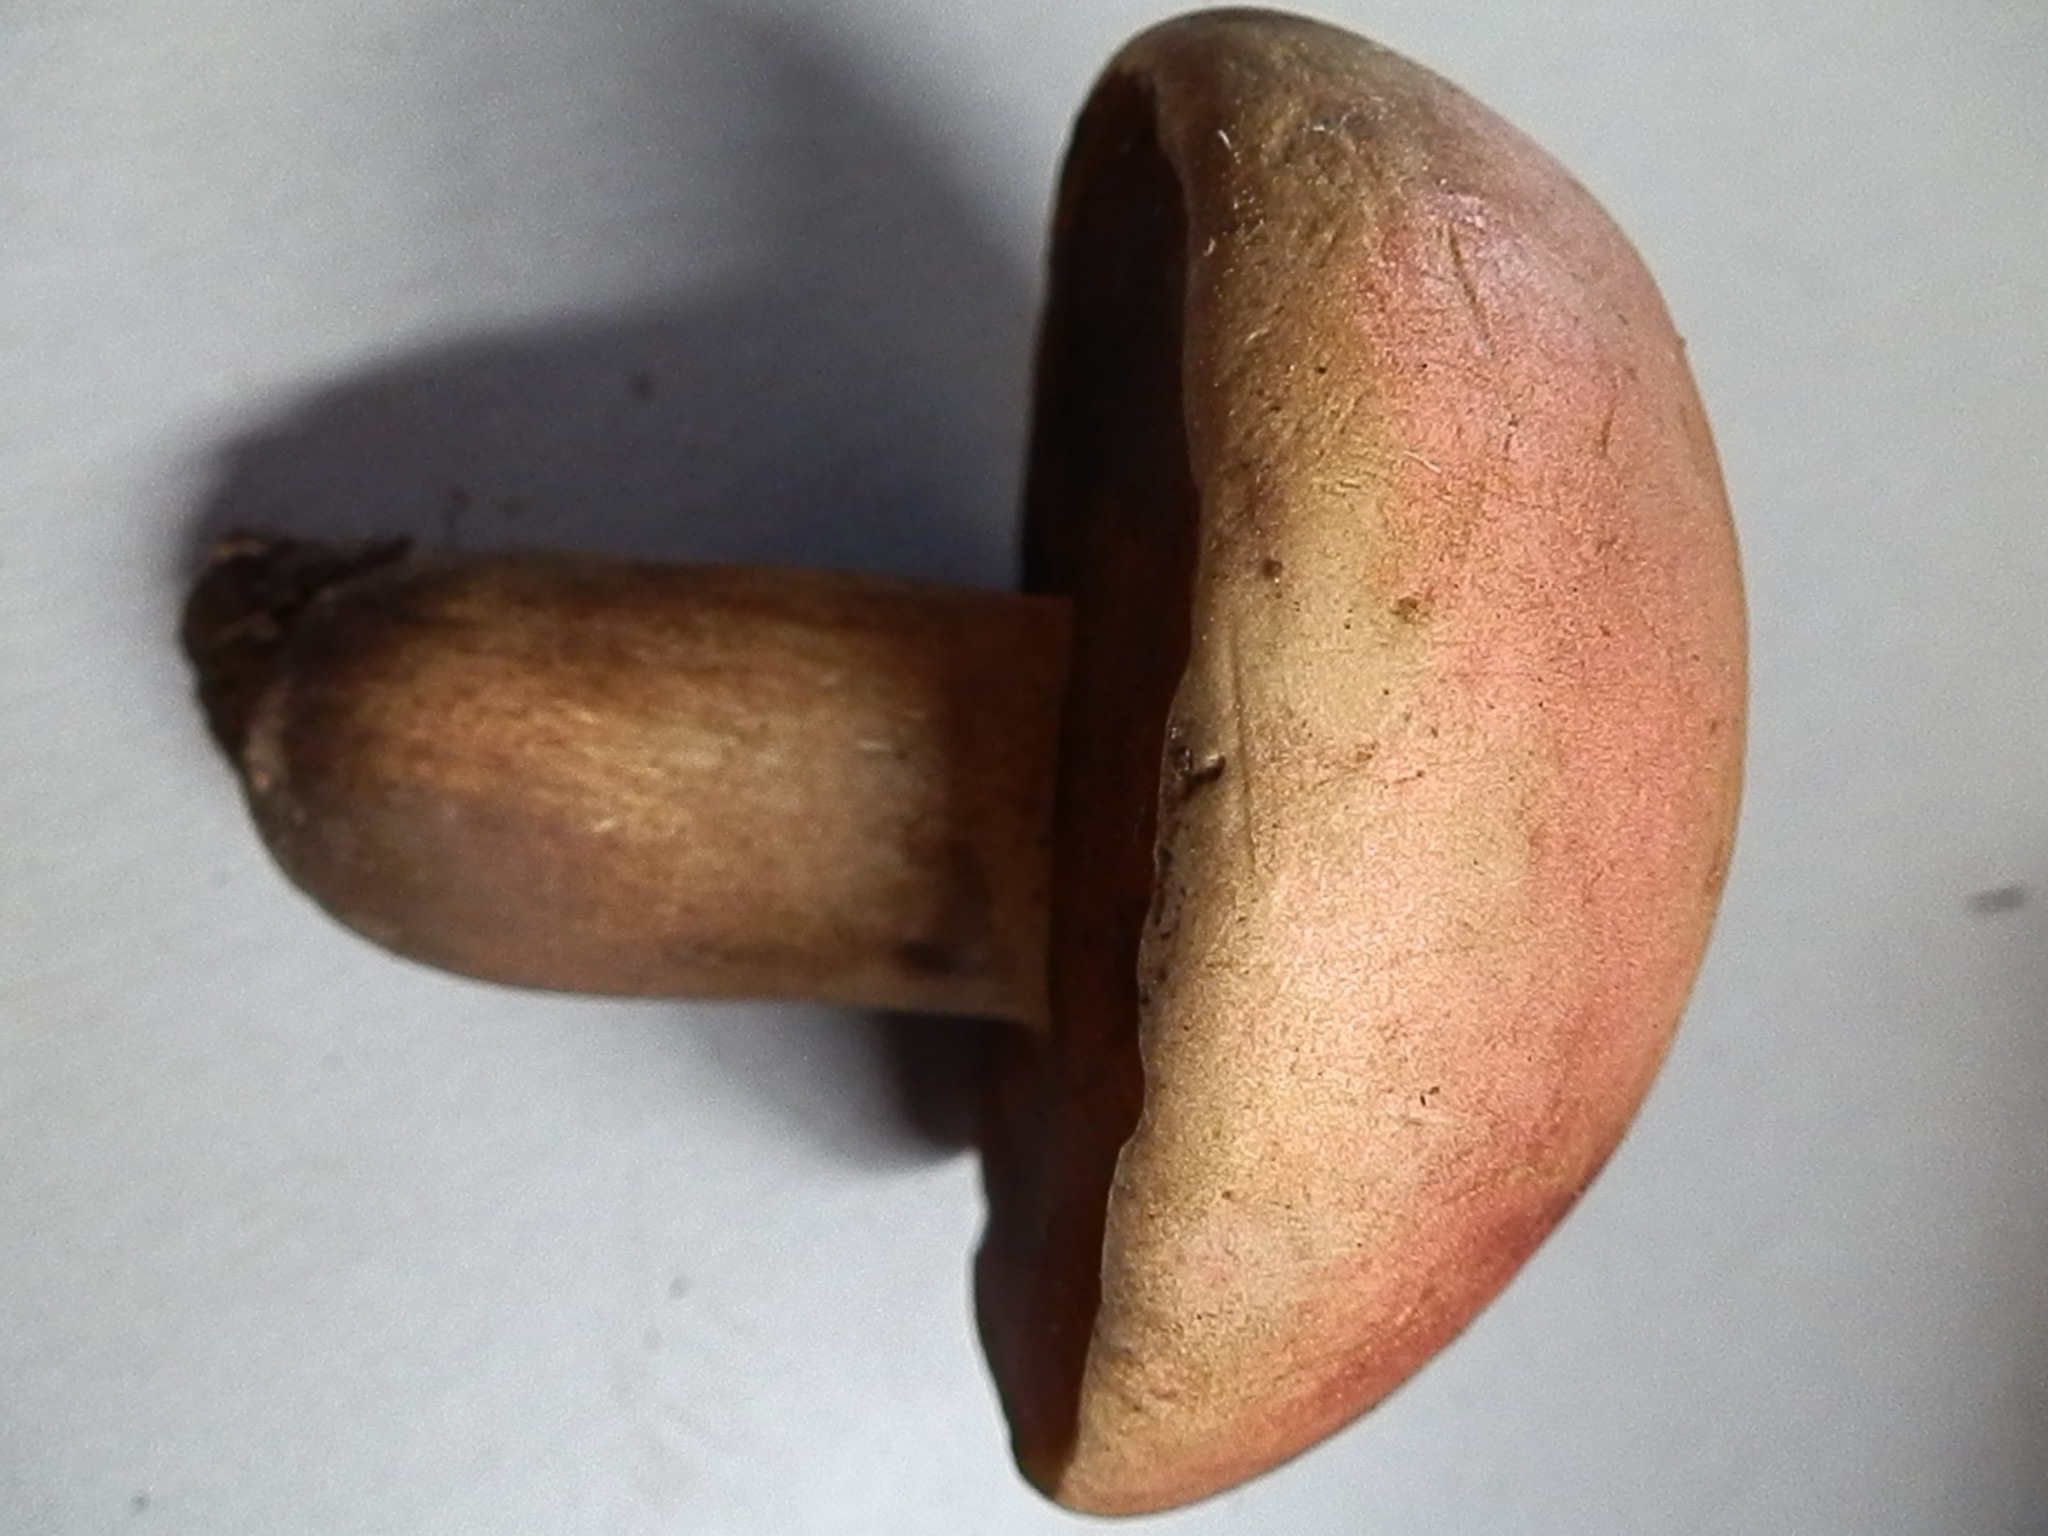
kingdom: Fungi
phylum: Basidiomycota
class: Agaricomycetes
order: Boletales
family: Boletaceae
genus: Boletus
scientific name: Boletus vermiculosoides
